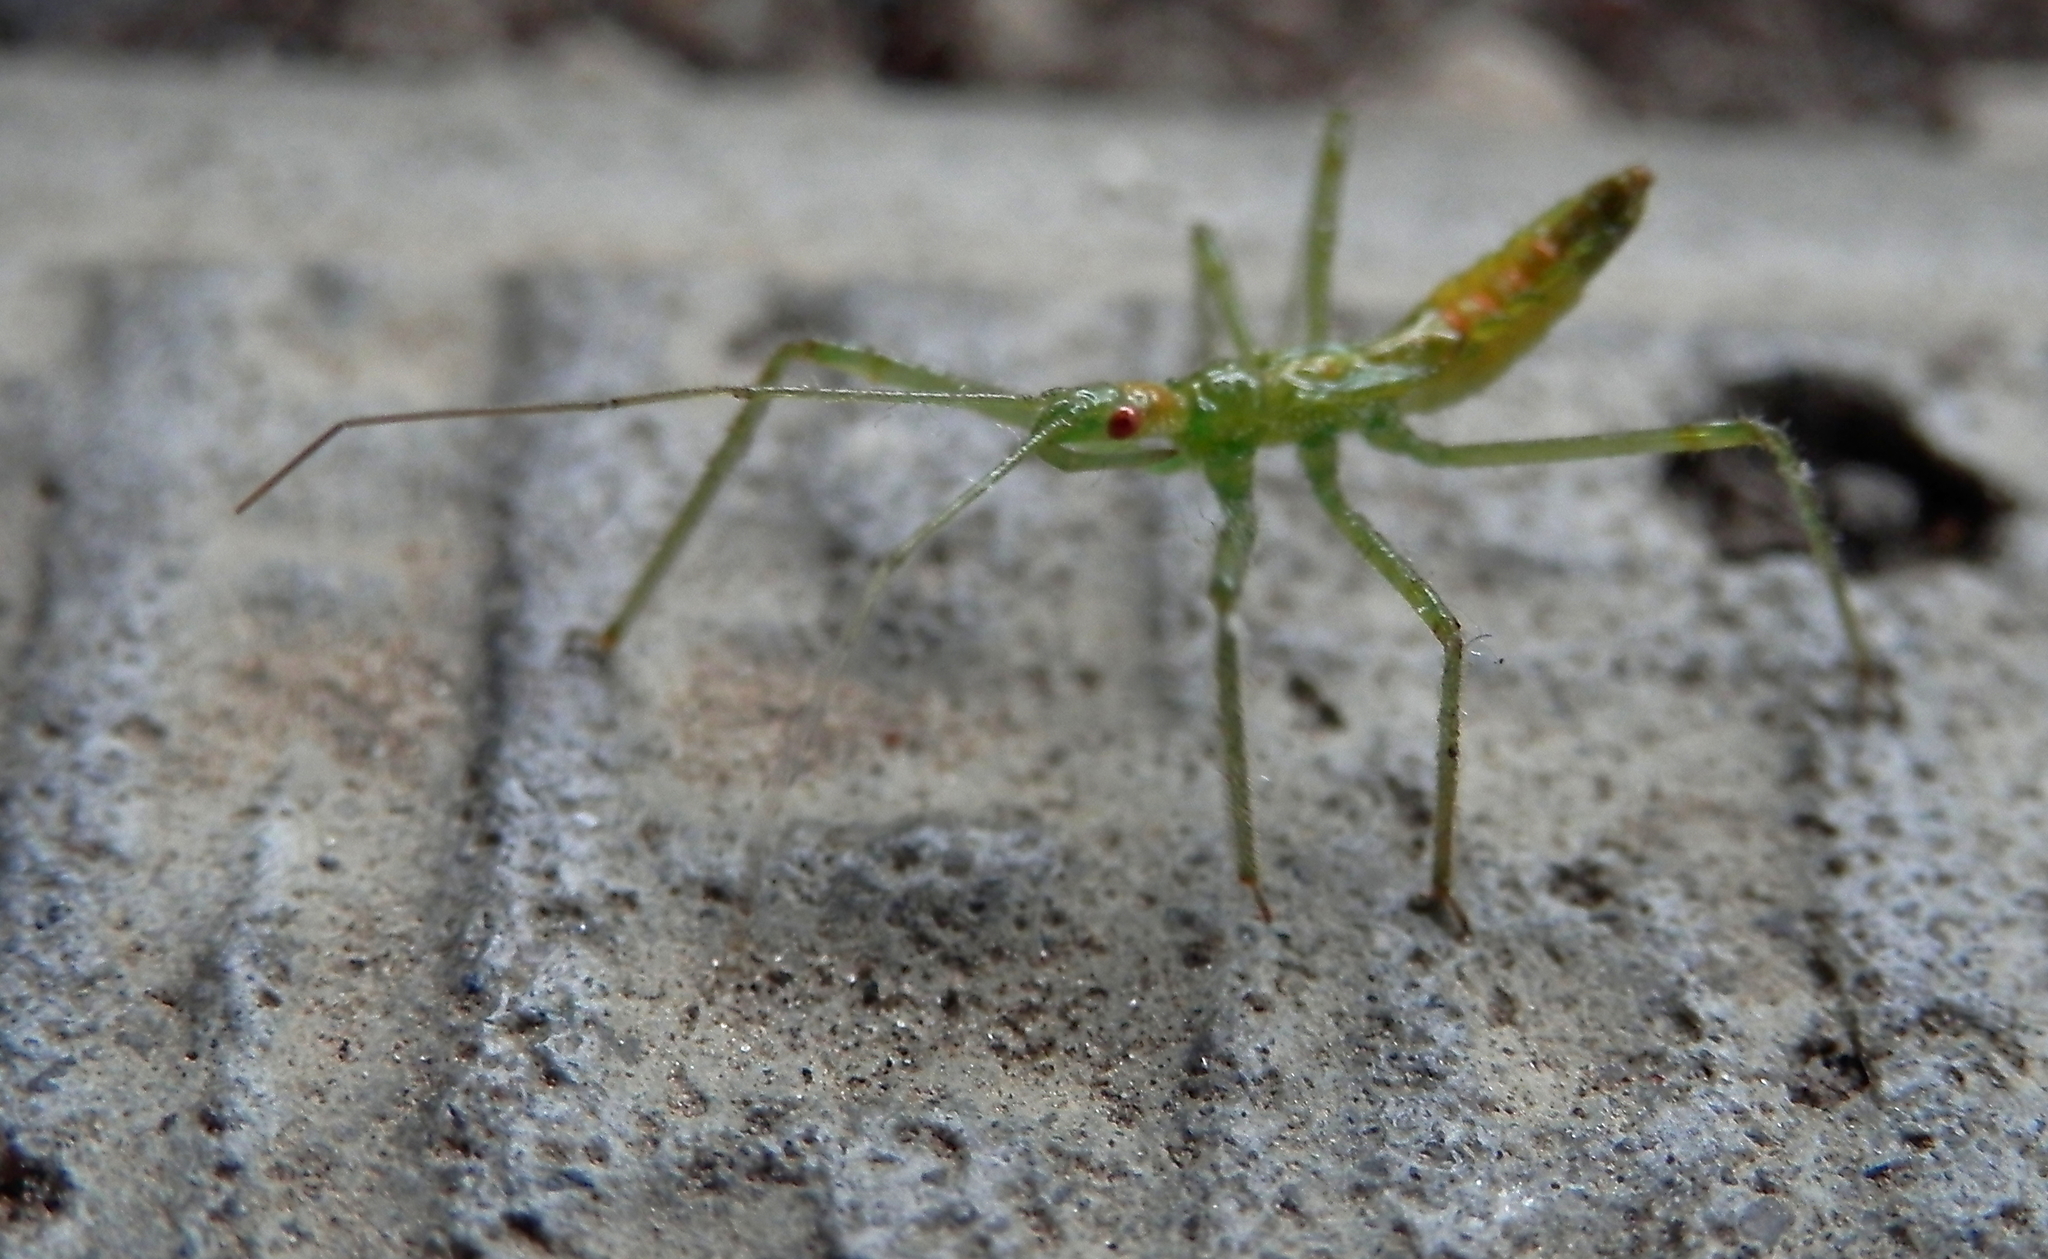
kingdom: Animalia
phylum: Arthropoda
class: Insecta
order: Hemiptera
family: Reduviidae
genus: Zelus
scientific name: Zelus luridus
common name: Pale green assassin bug
